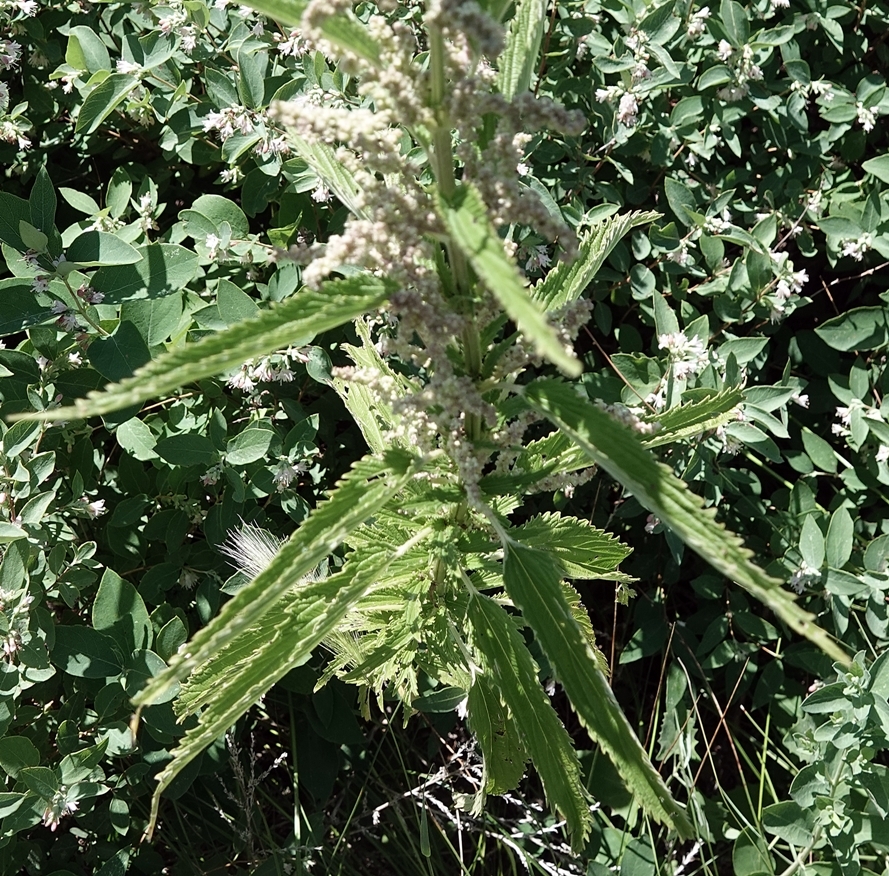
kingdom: Plantae
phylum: Tracheophyta
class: Magnoliopsida
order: Rosales
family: Urticaceae
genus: Urtica
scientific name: Urtica dioica
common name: Common nettle
